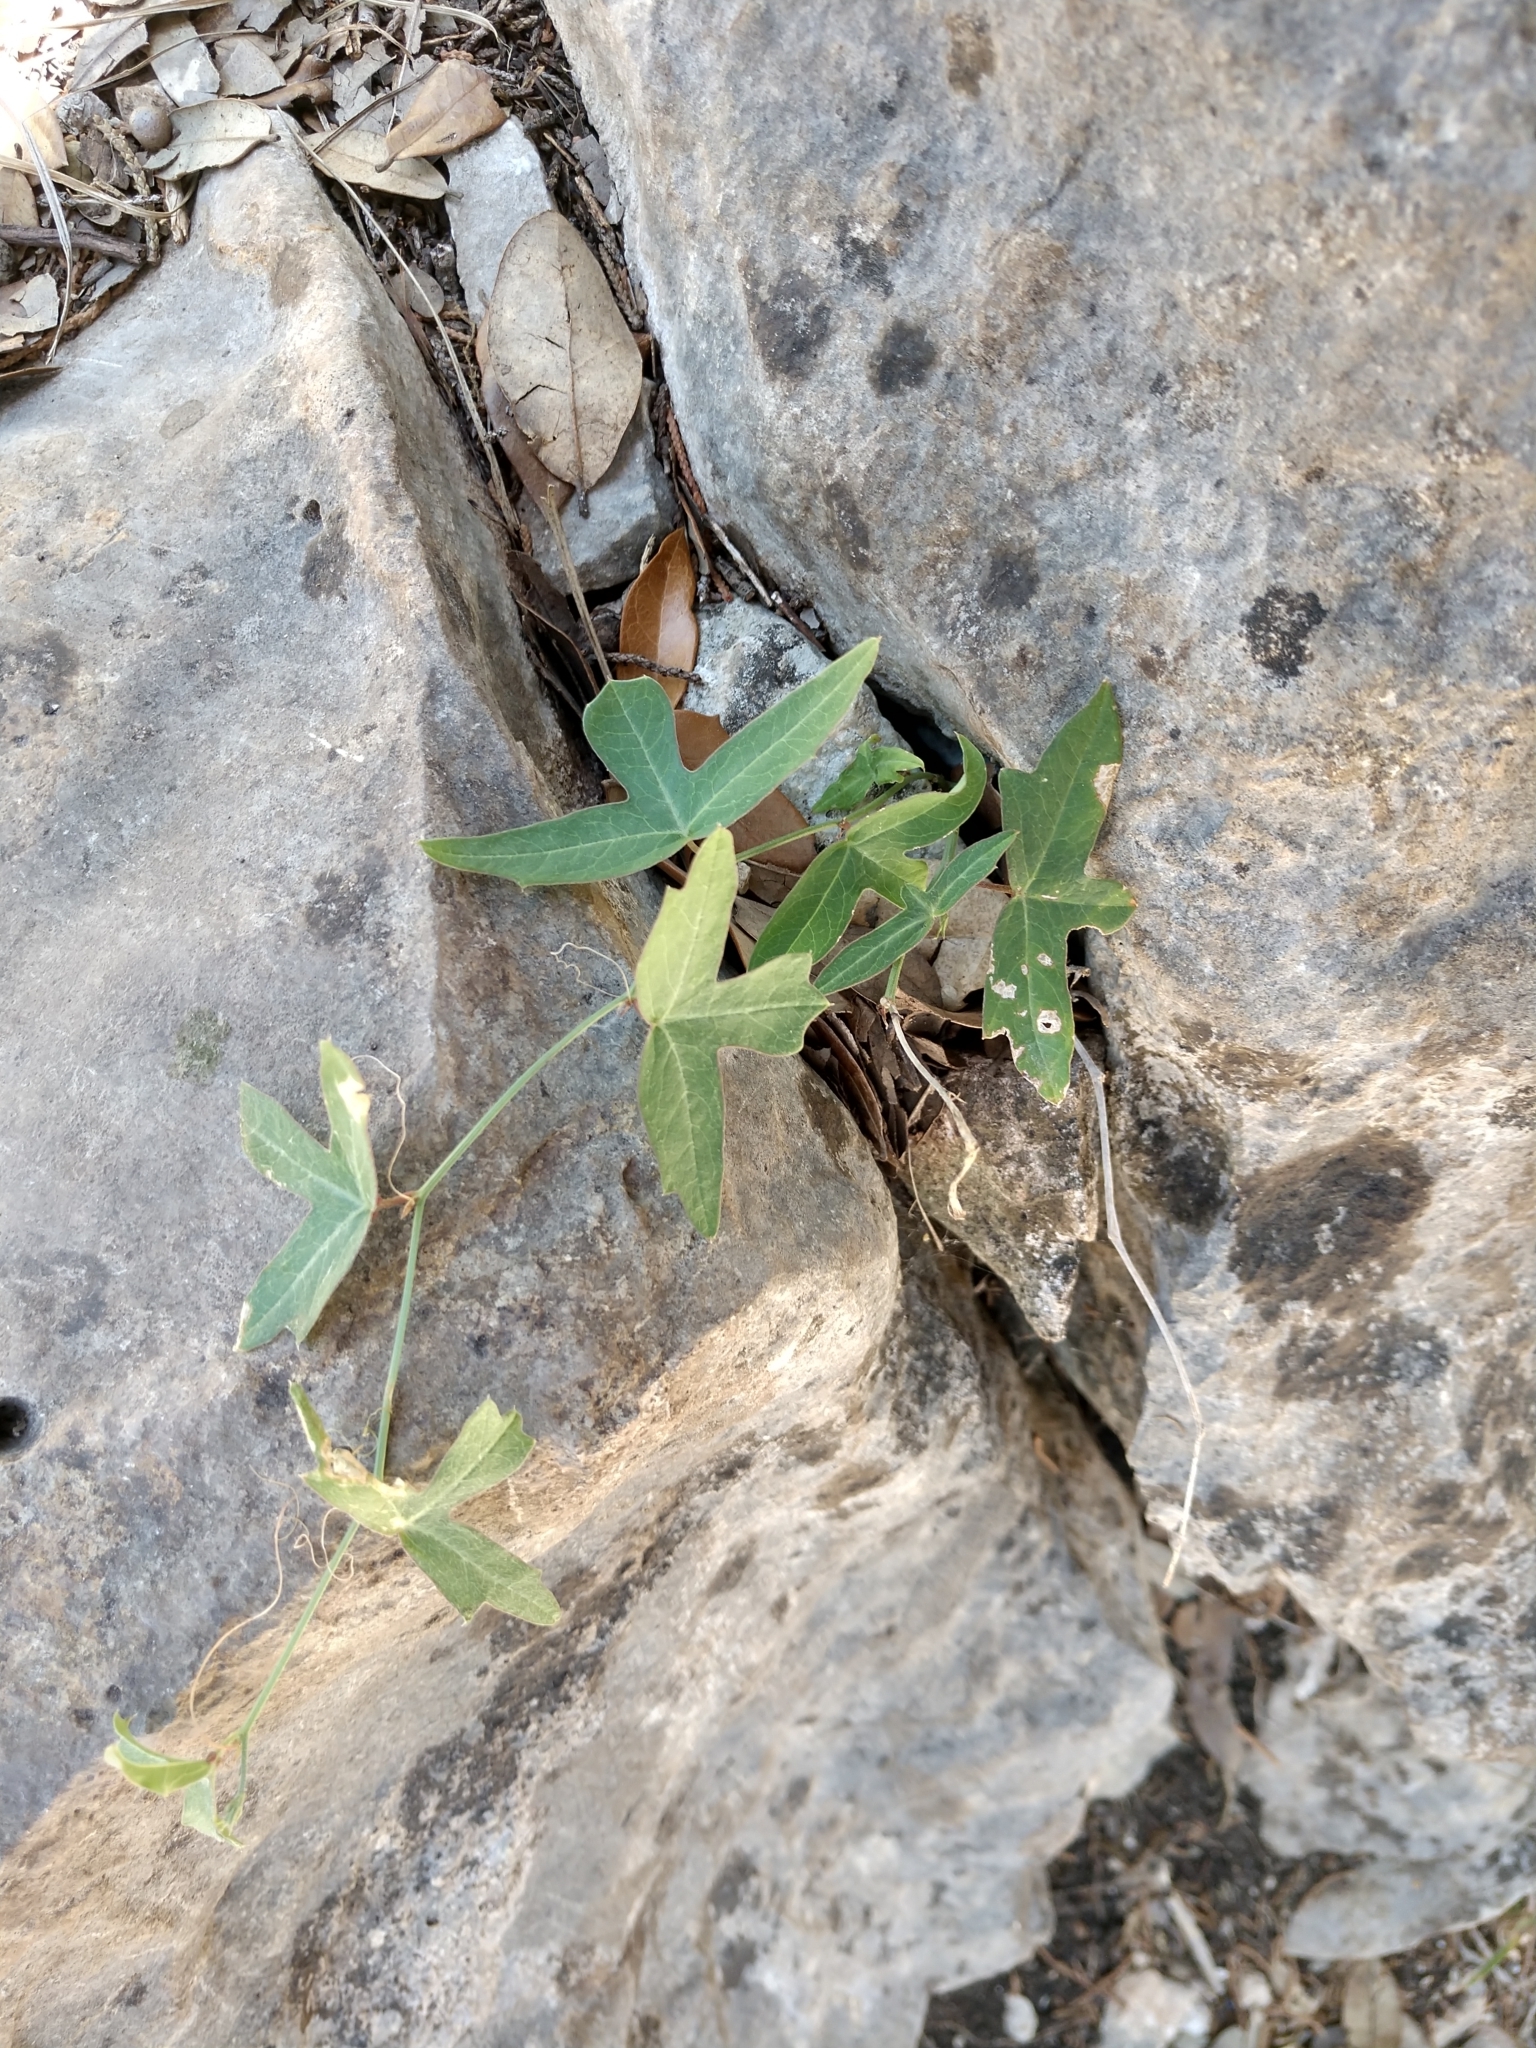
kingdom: Plantae
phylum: Tracheophyta
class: Magnoliopsida
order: Malpighiales
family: Passifloraceae
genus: Passiflora
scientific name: Passiflora tenuiloba
